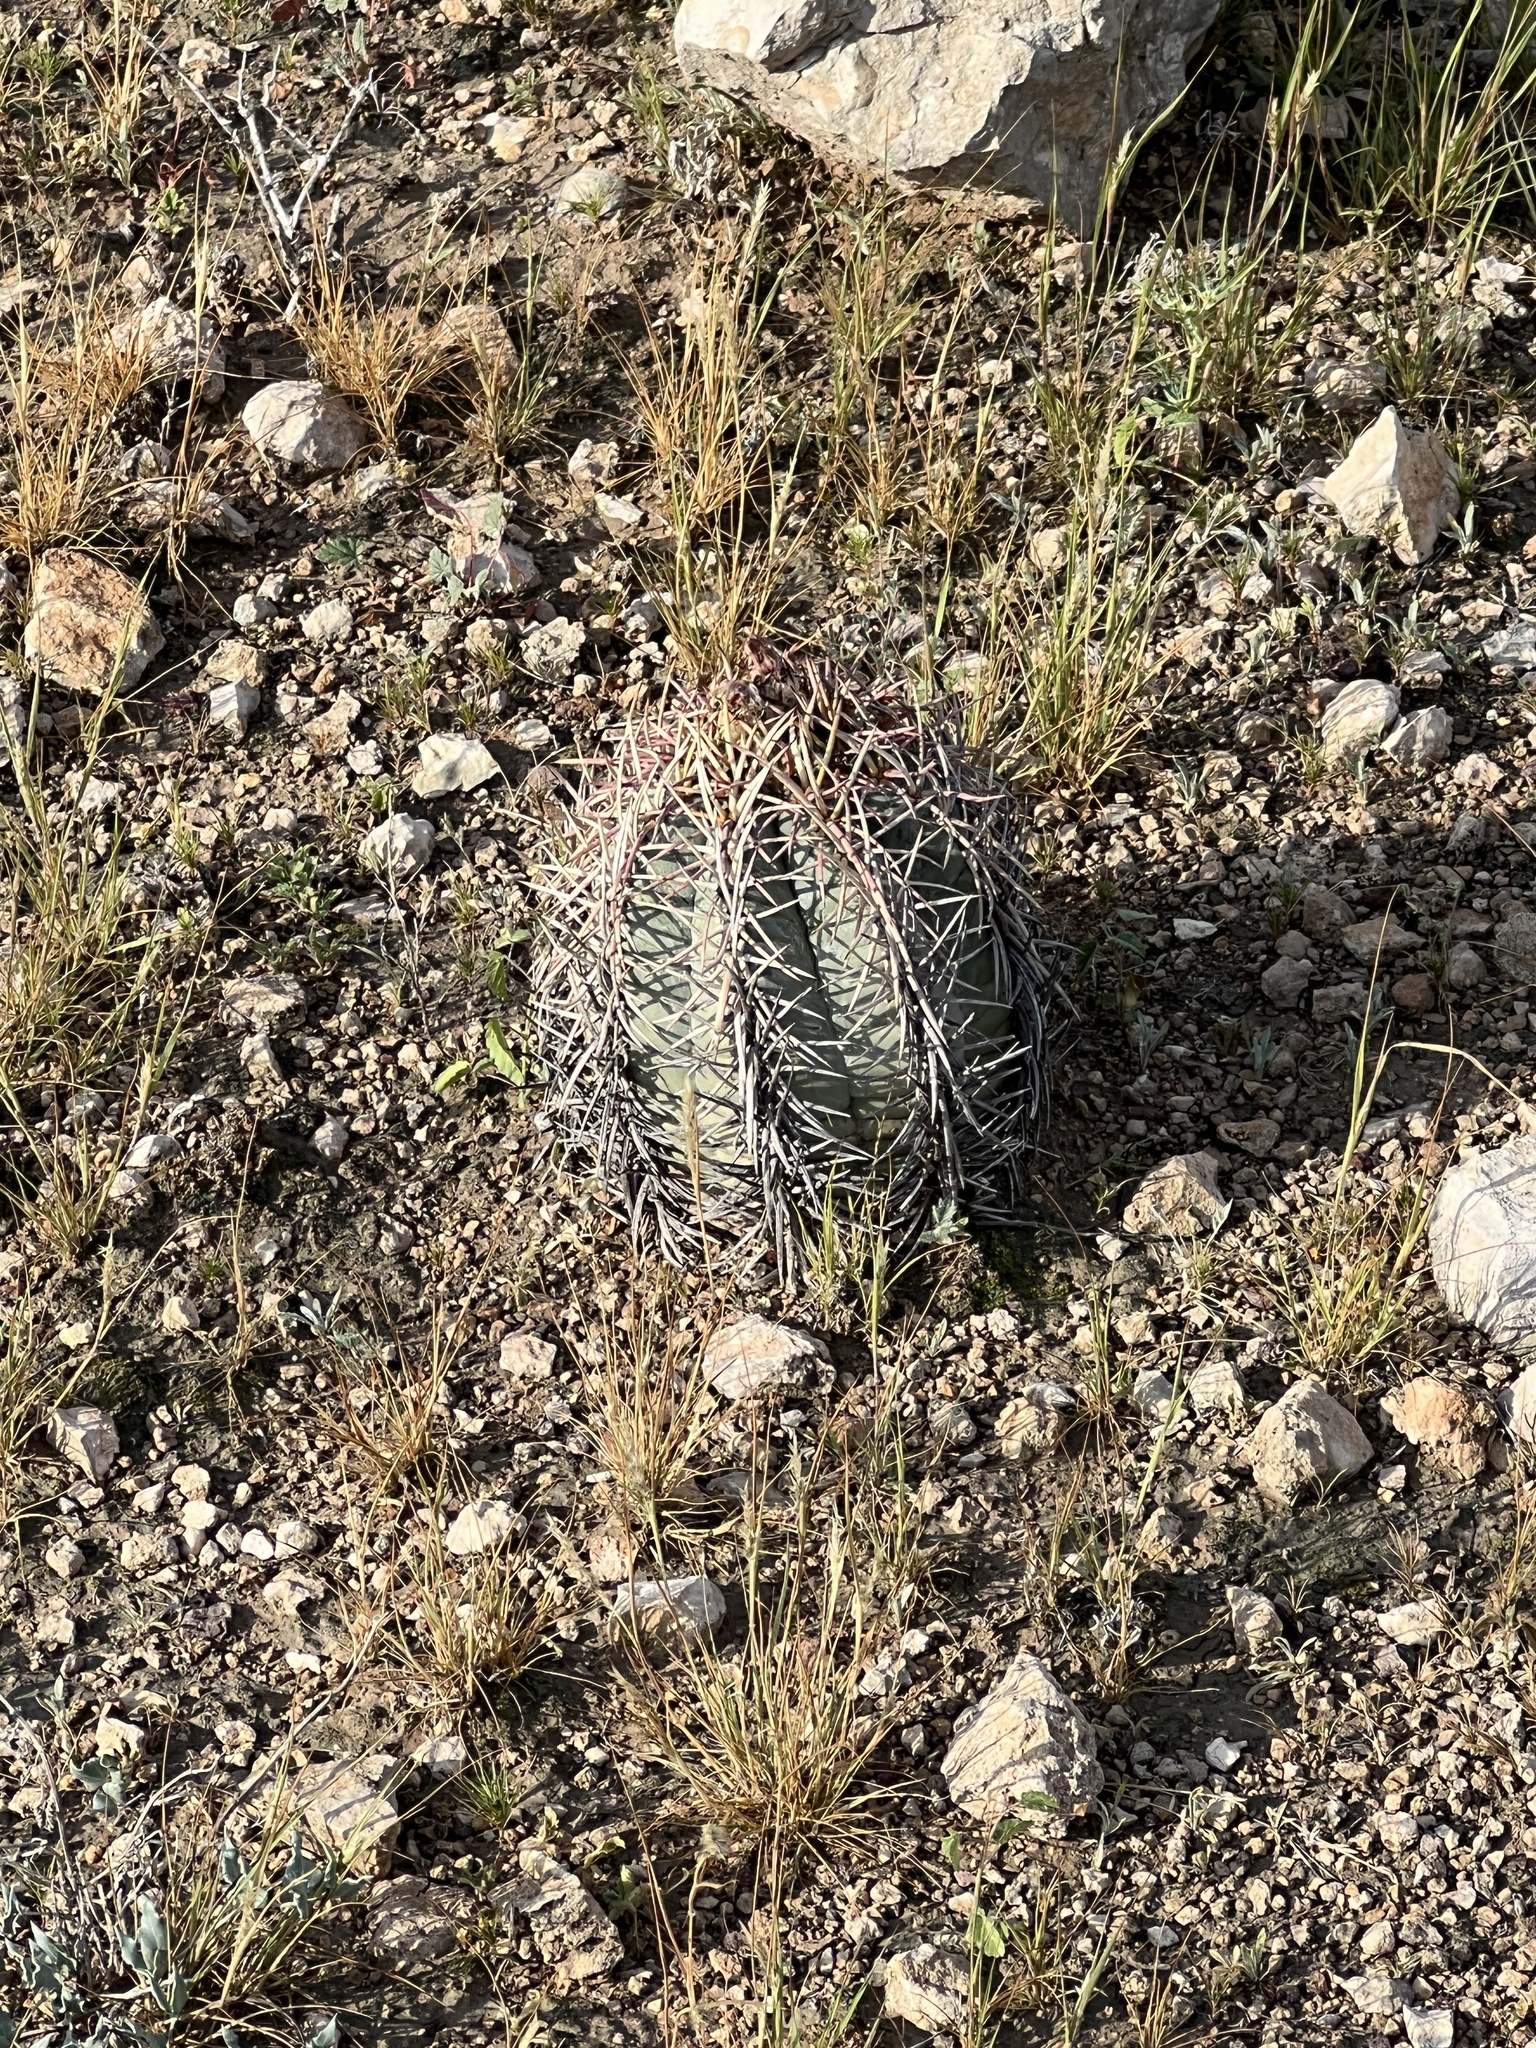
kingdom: Plantae
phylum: Tracheophyta
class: Magnoliopsida
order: Caryophyllales
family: Cactaceae
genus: Echinocactus
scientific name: Echinocactus horizonthalonius
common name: Devilshead
